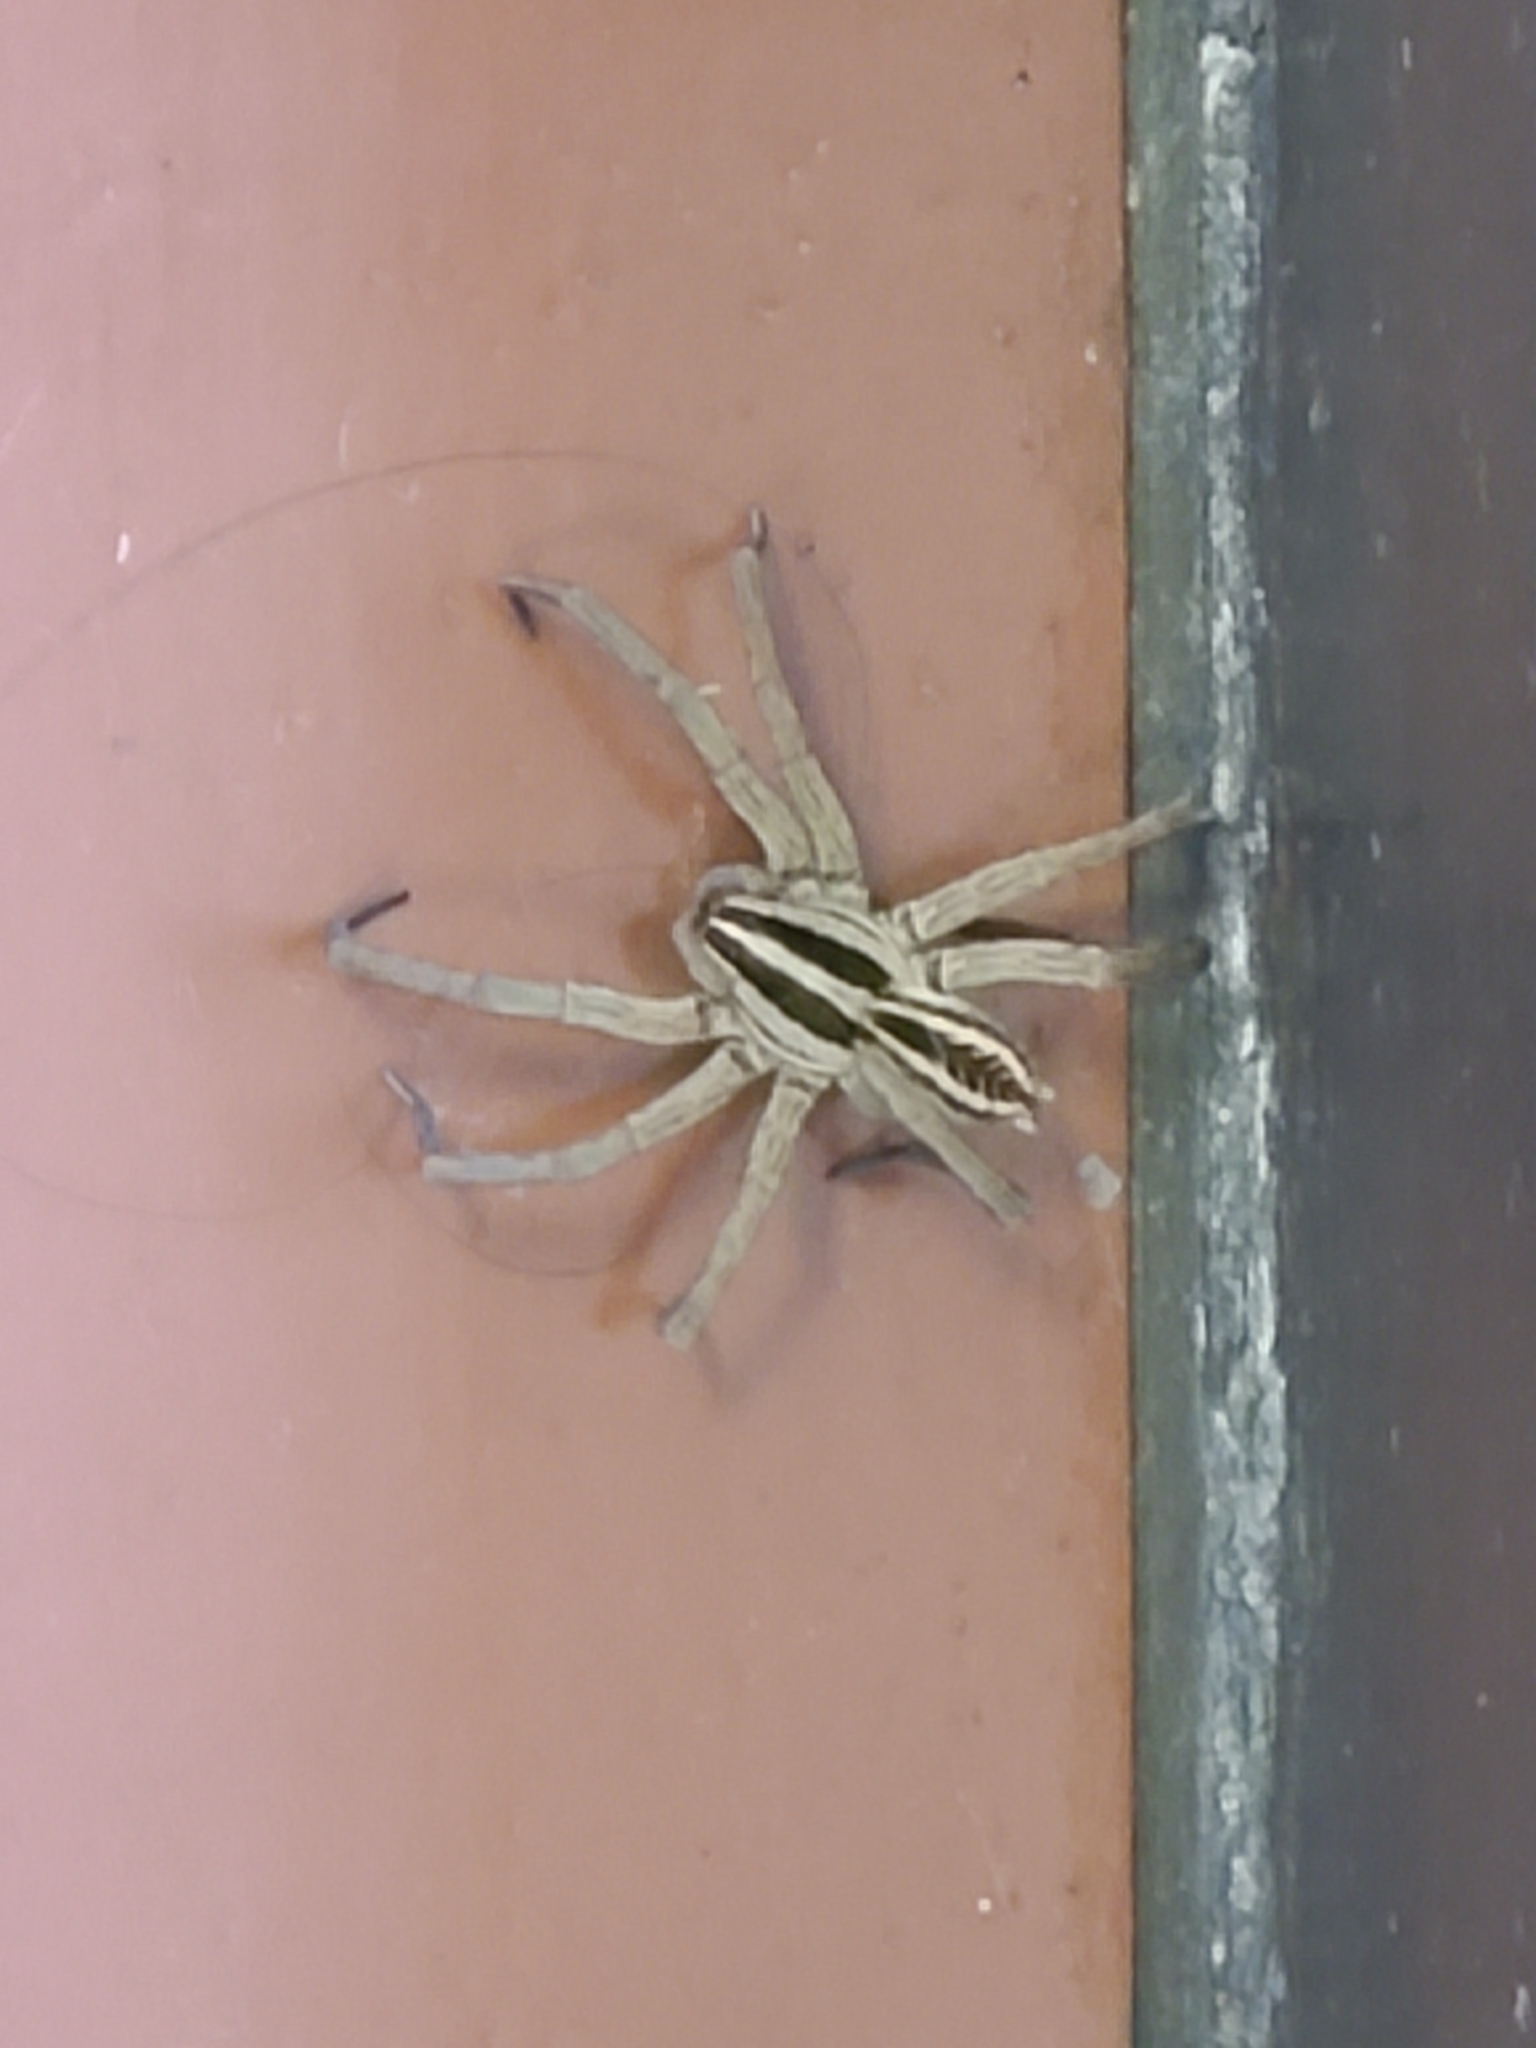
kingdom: Animalia
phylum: Arthropoda
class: Arachnida
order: Araneae
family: Lycosidae
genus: Rabidosa
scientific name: Rabidosa rabida
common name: Rabid wolf spider
